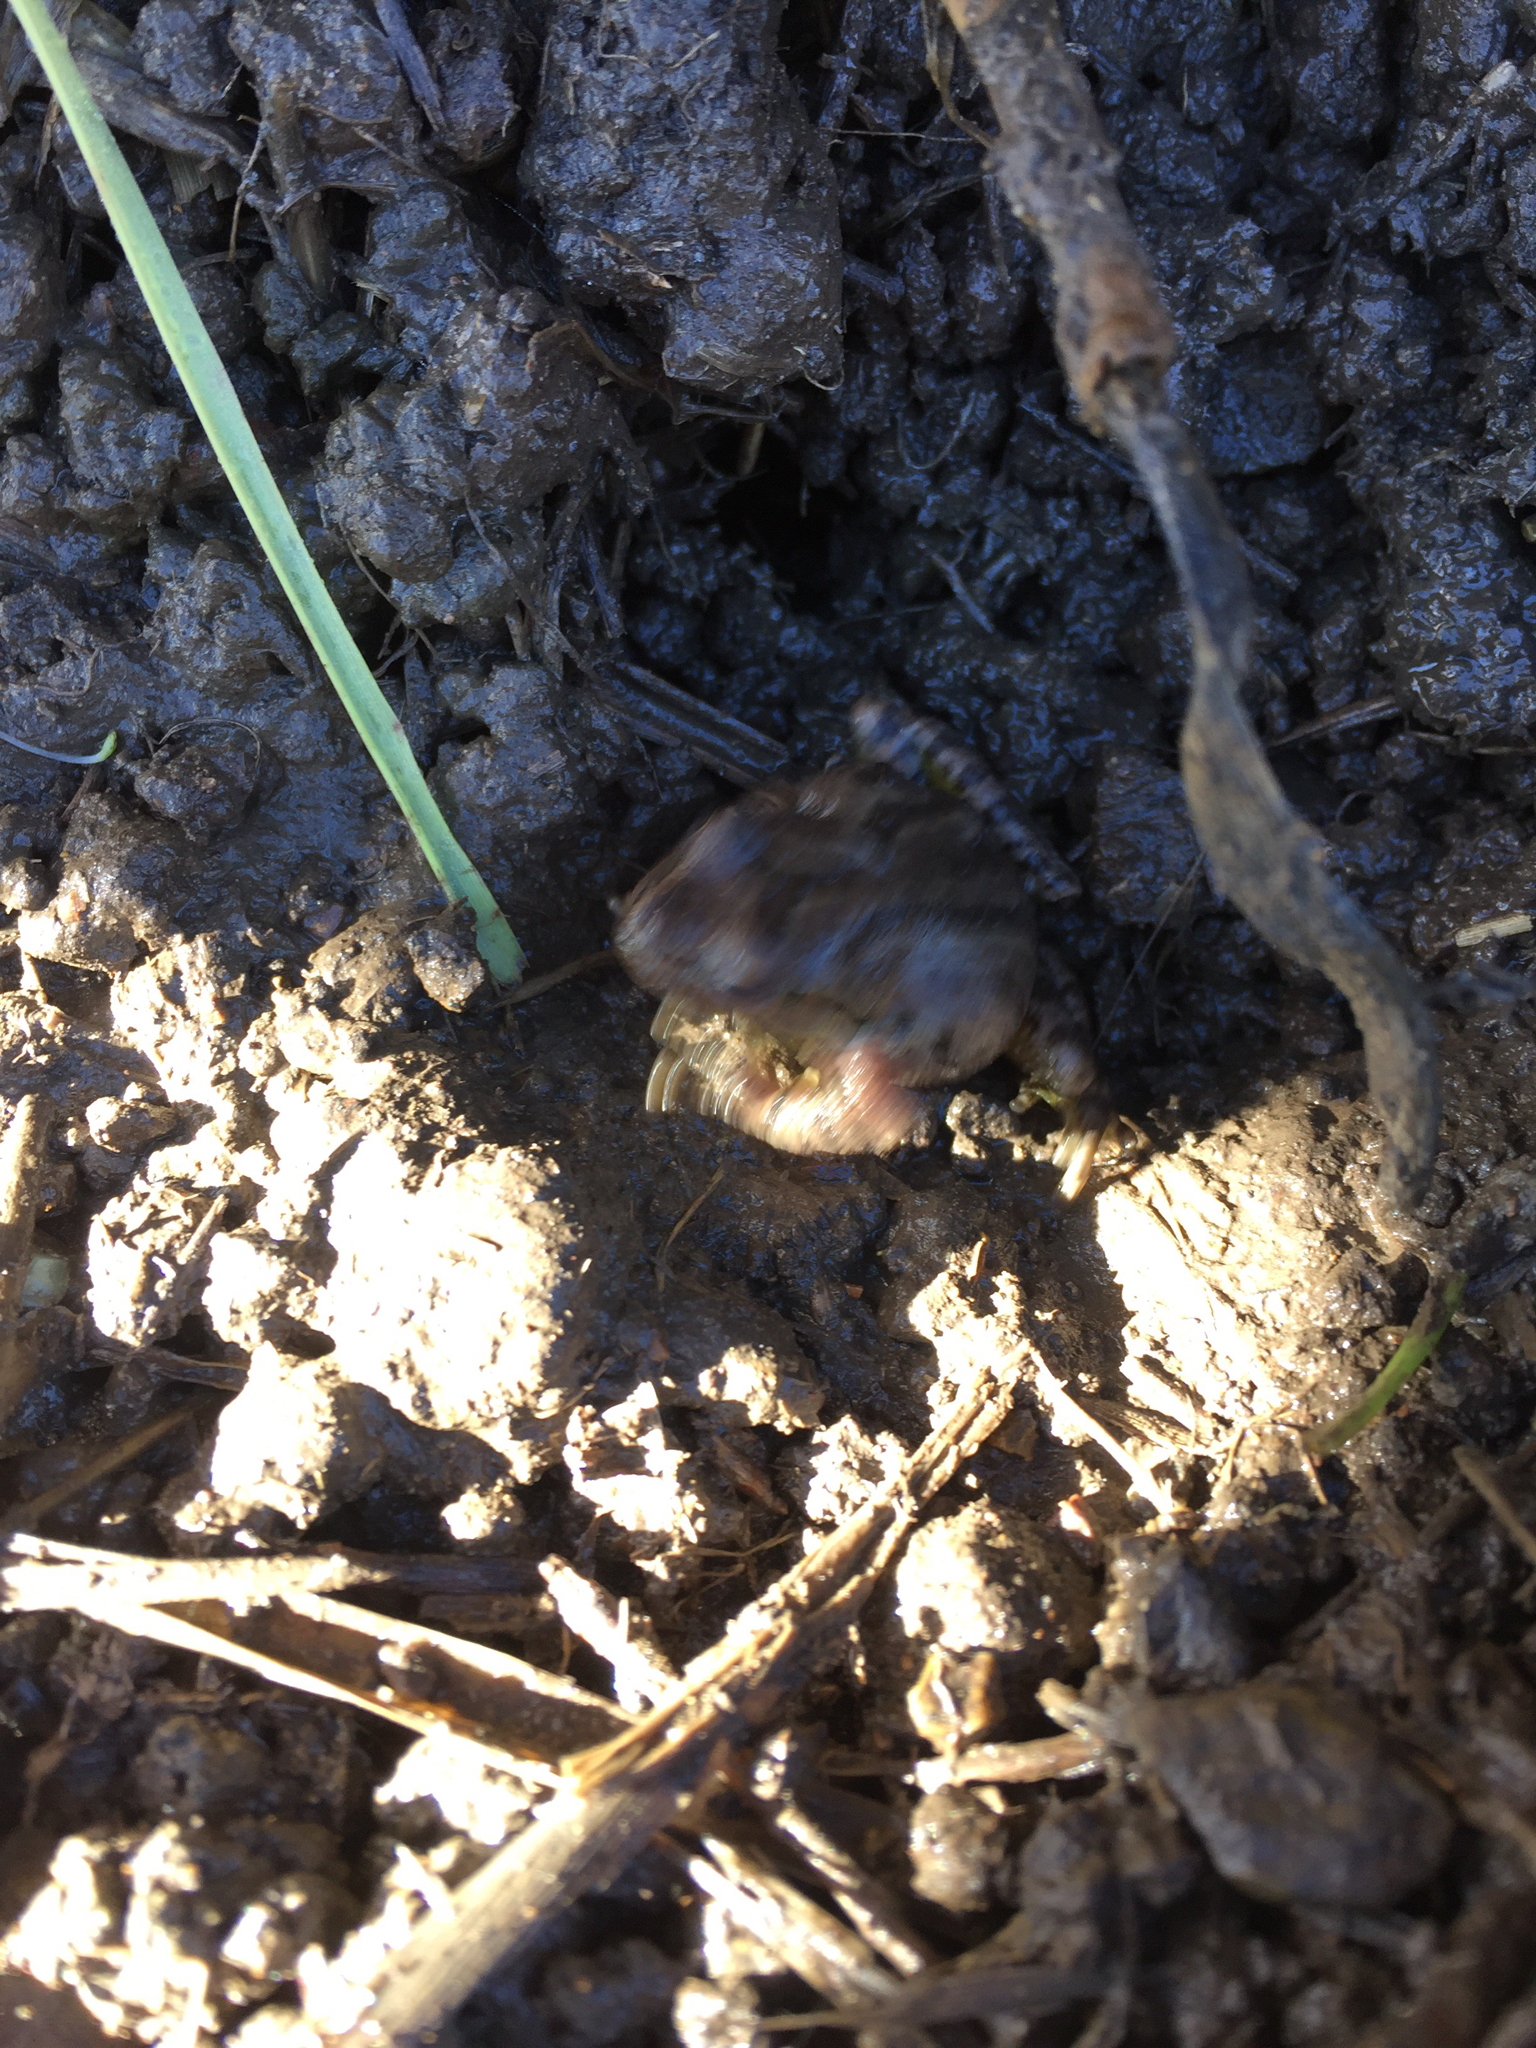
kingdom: Animalia
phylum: Chordata
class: Amphibia
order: Anura
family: Hylidae
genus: Pseudacris
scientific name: Pseudacris regilla
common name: Pacific chorus frog
